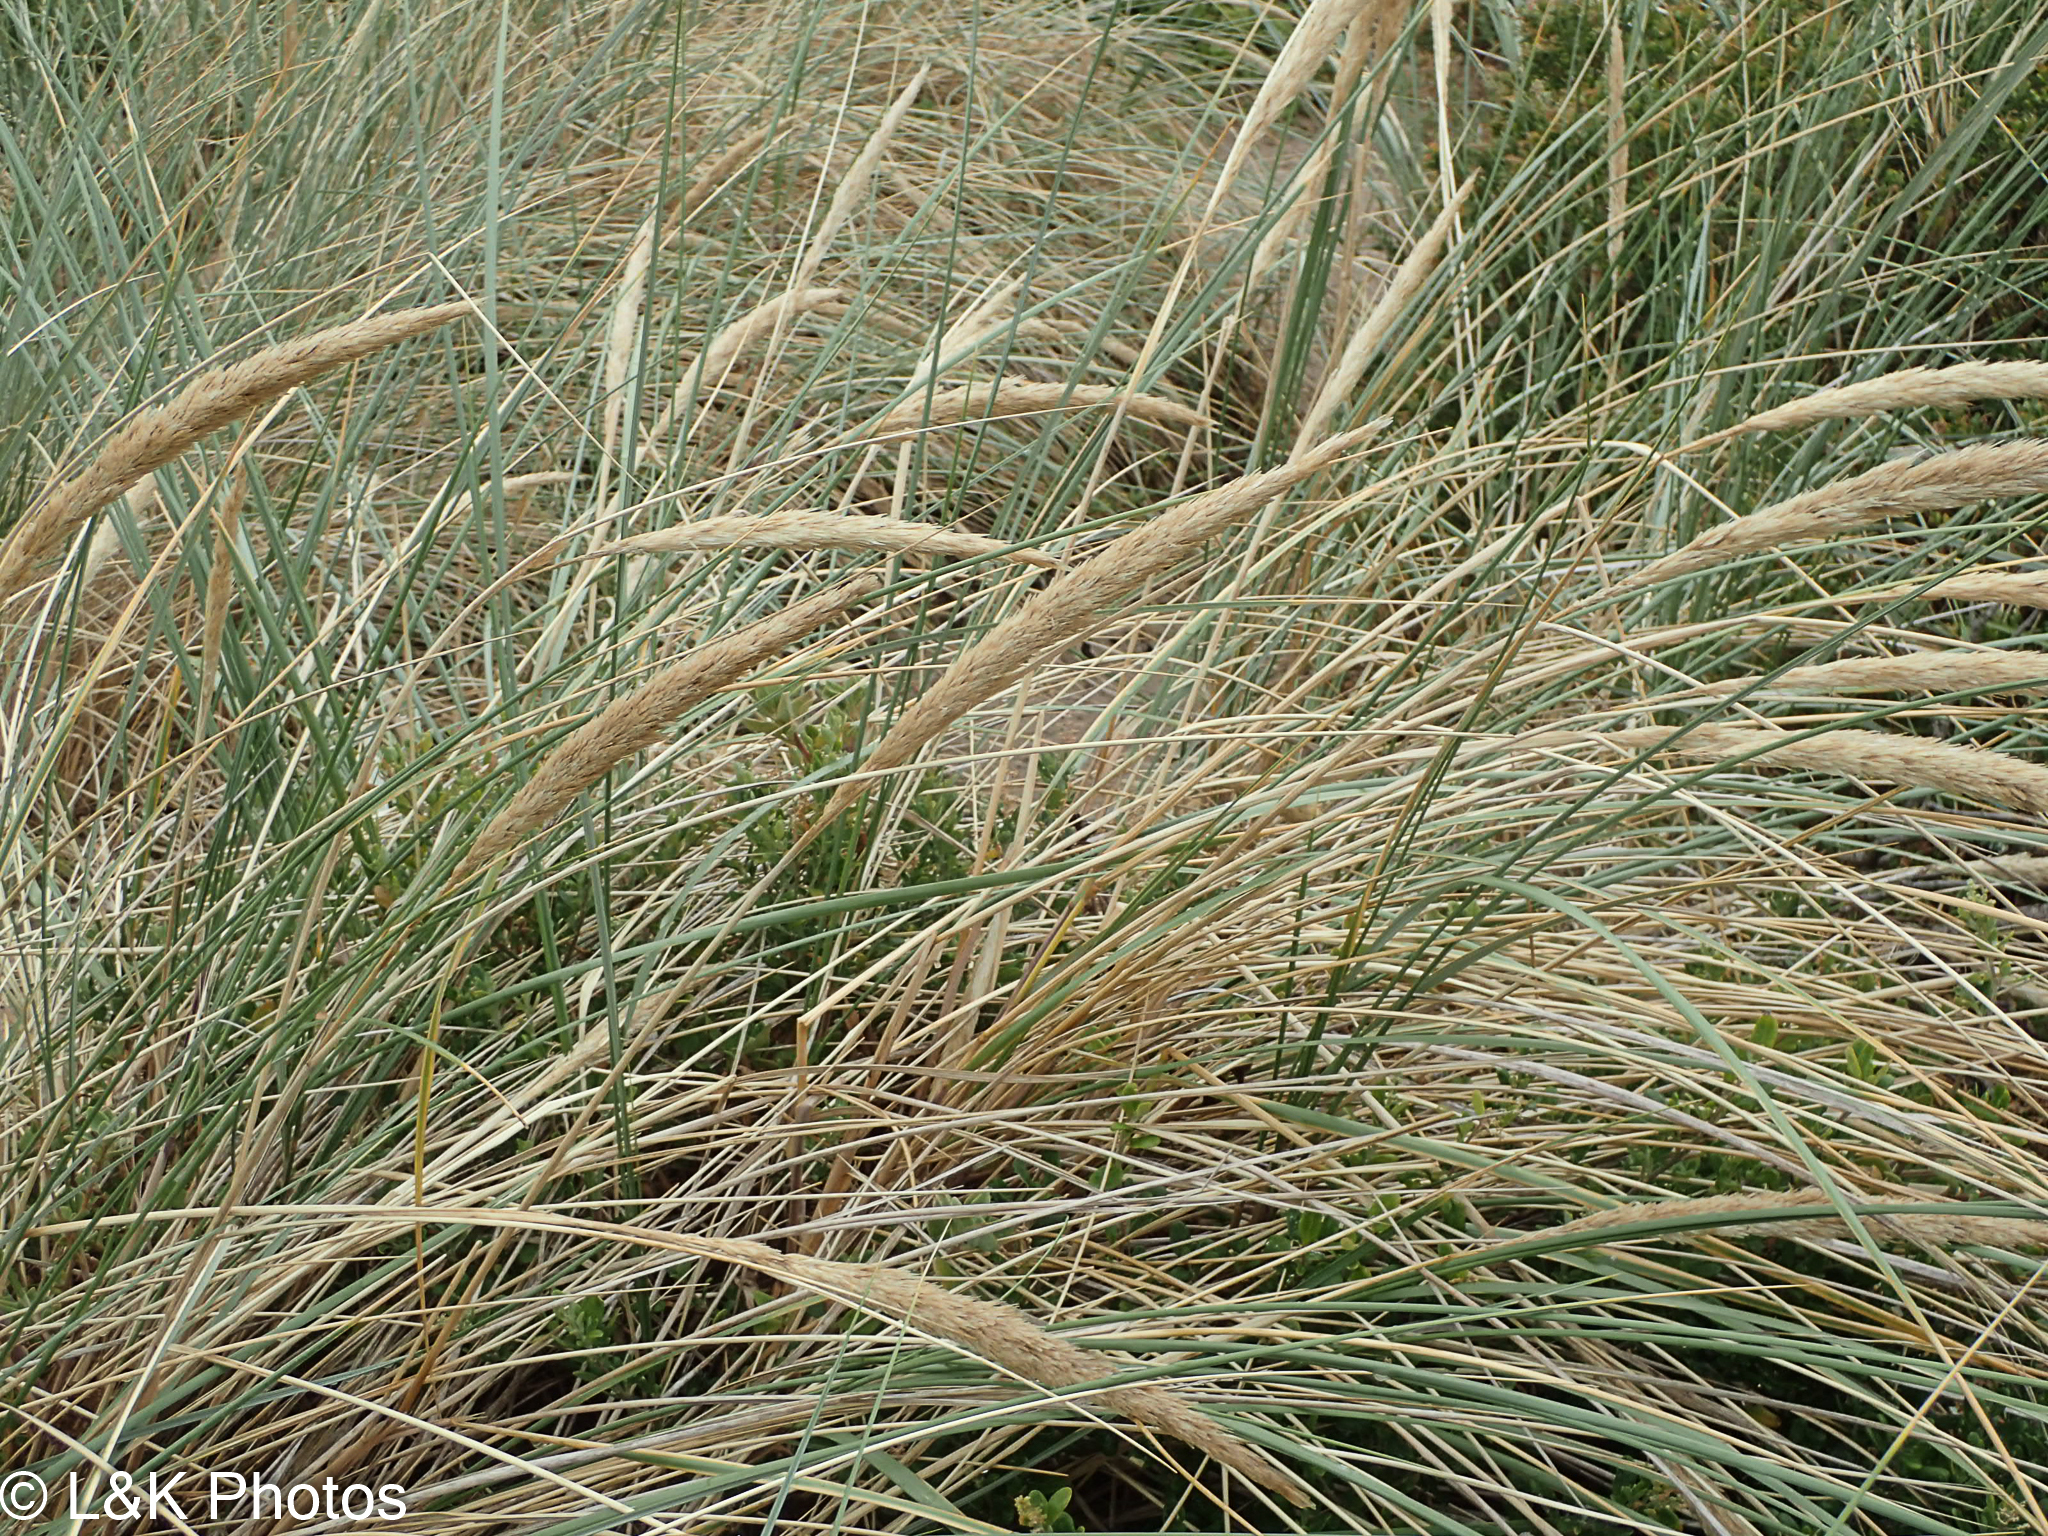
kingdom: Plantae
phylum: Tracheophyta
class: Liliopsida
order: Poales
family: Poaceae
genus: Calamagrostis
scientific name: Calamagrostis arenaria
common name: European beachgrass
